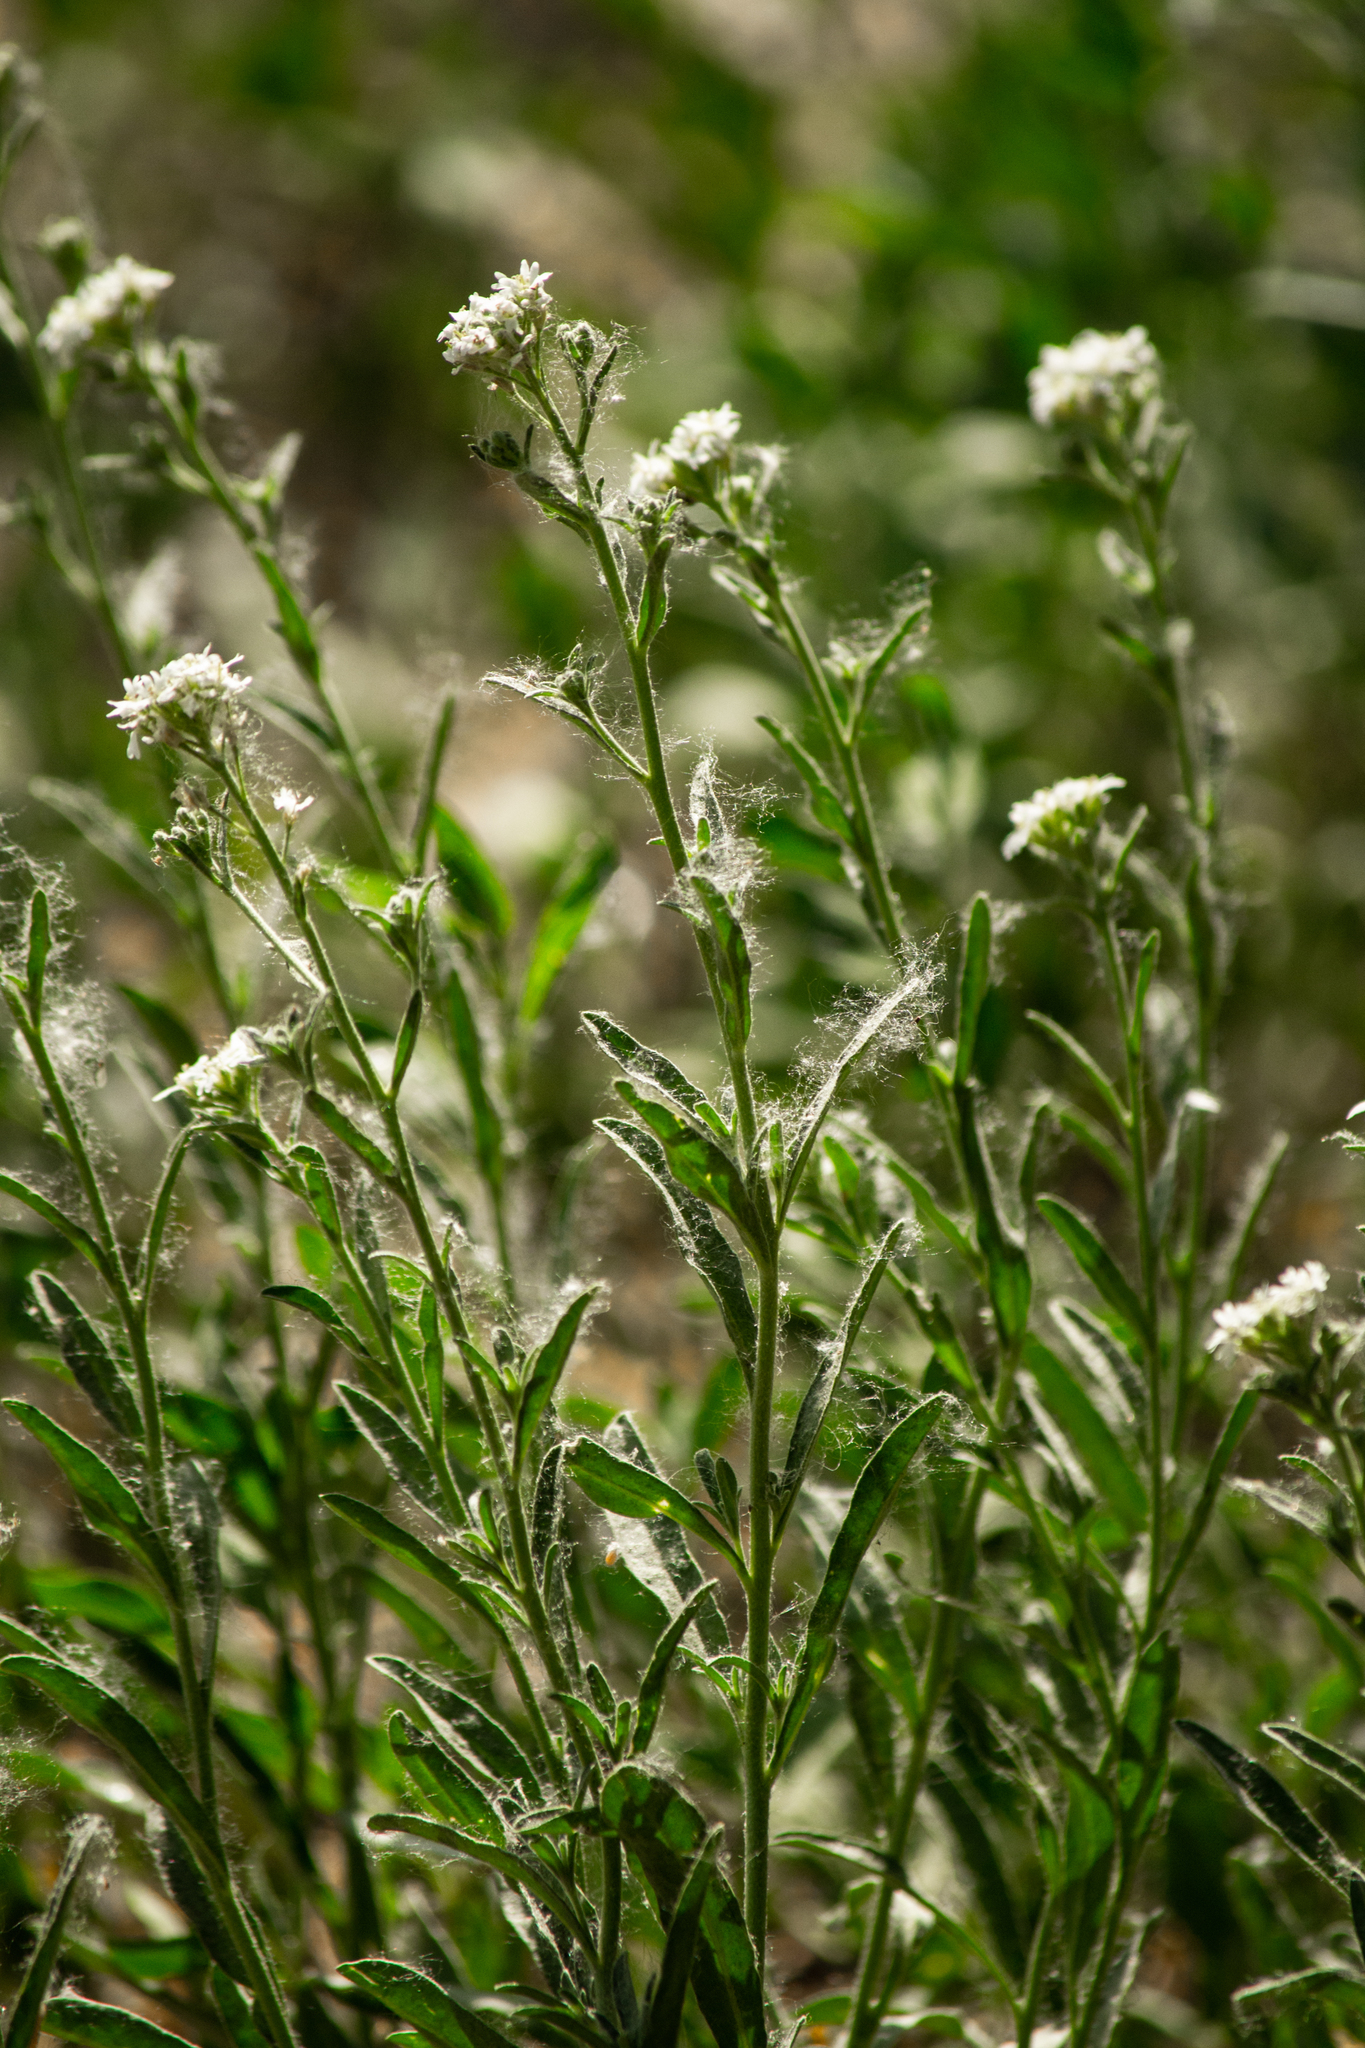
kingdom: Plantae
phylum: Tracheophyta
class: Magnoliopsida
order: Brassicales
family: Brassicaceae
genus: Berteroa
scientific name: Berteroa incana
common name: Hoary alison
